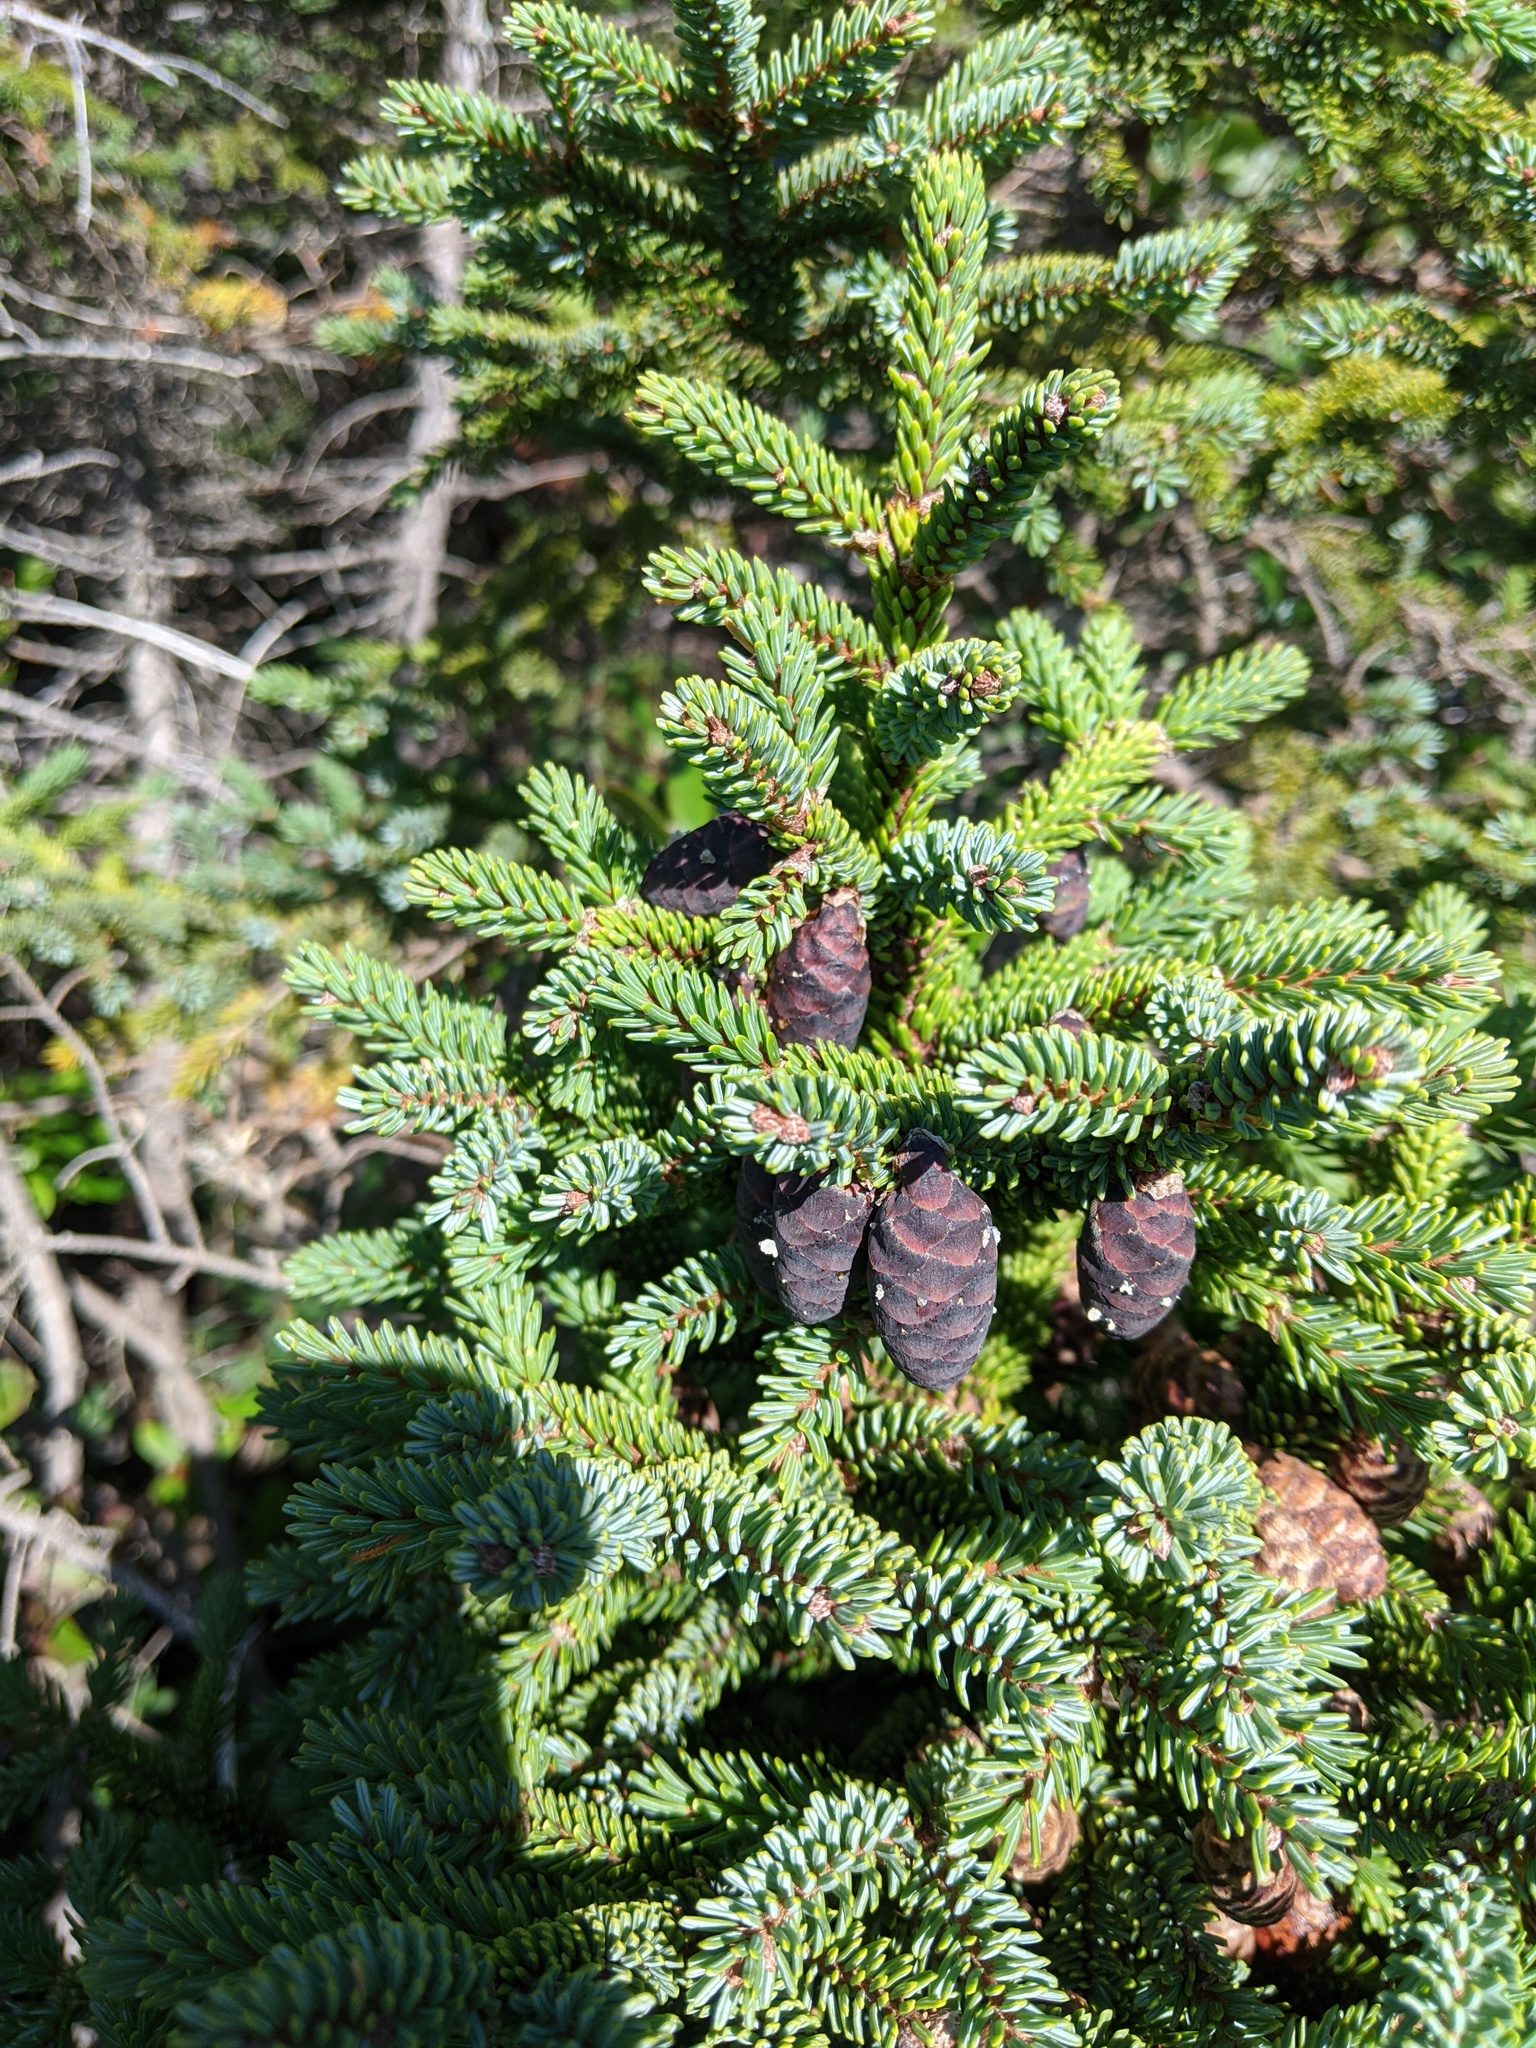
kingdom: Plantae
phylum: Tracheophyta
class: Pinopsida
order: Pinales
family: Pinaceae
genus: Picea
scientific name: Picea mariana
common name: Black spruce
